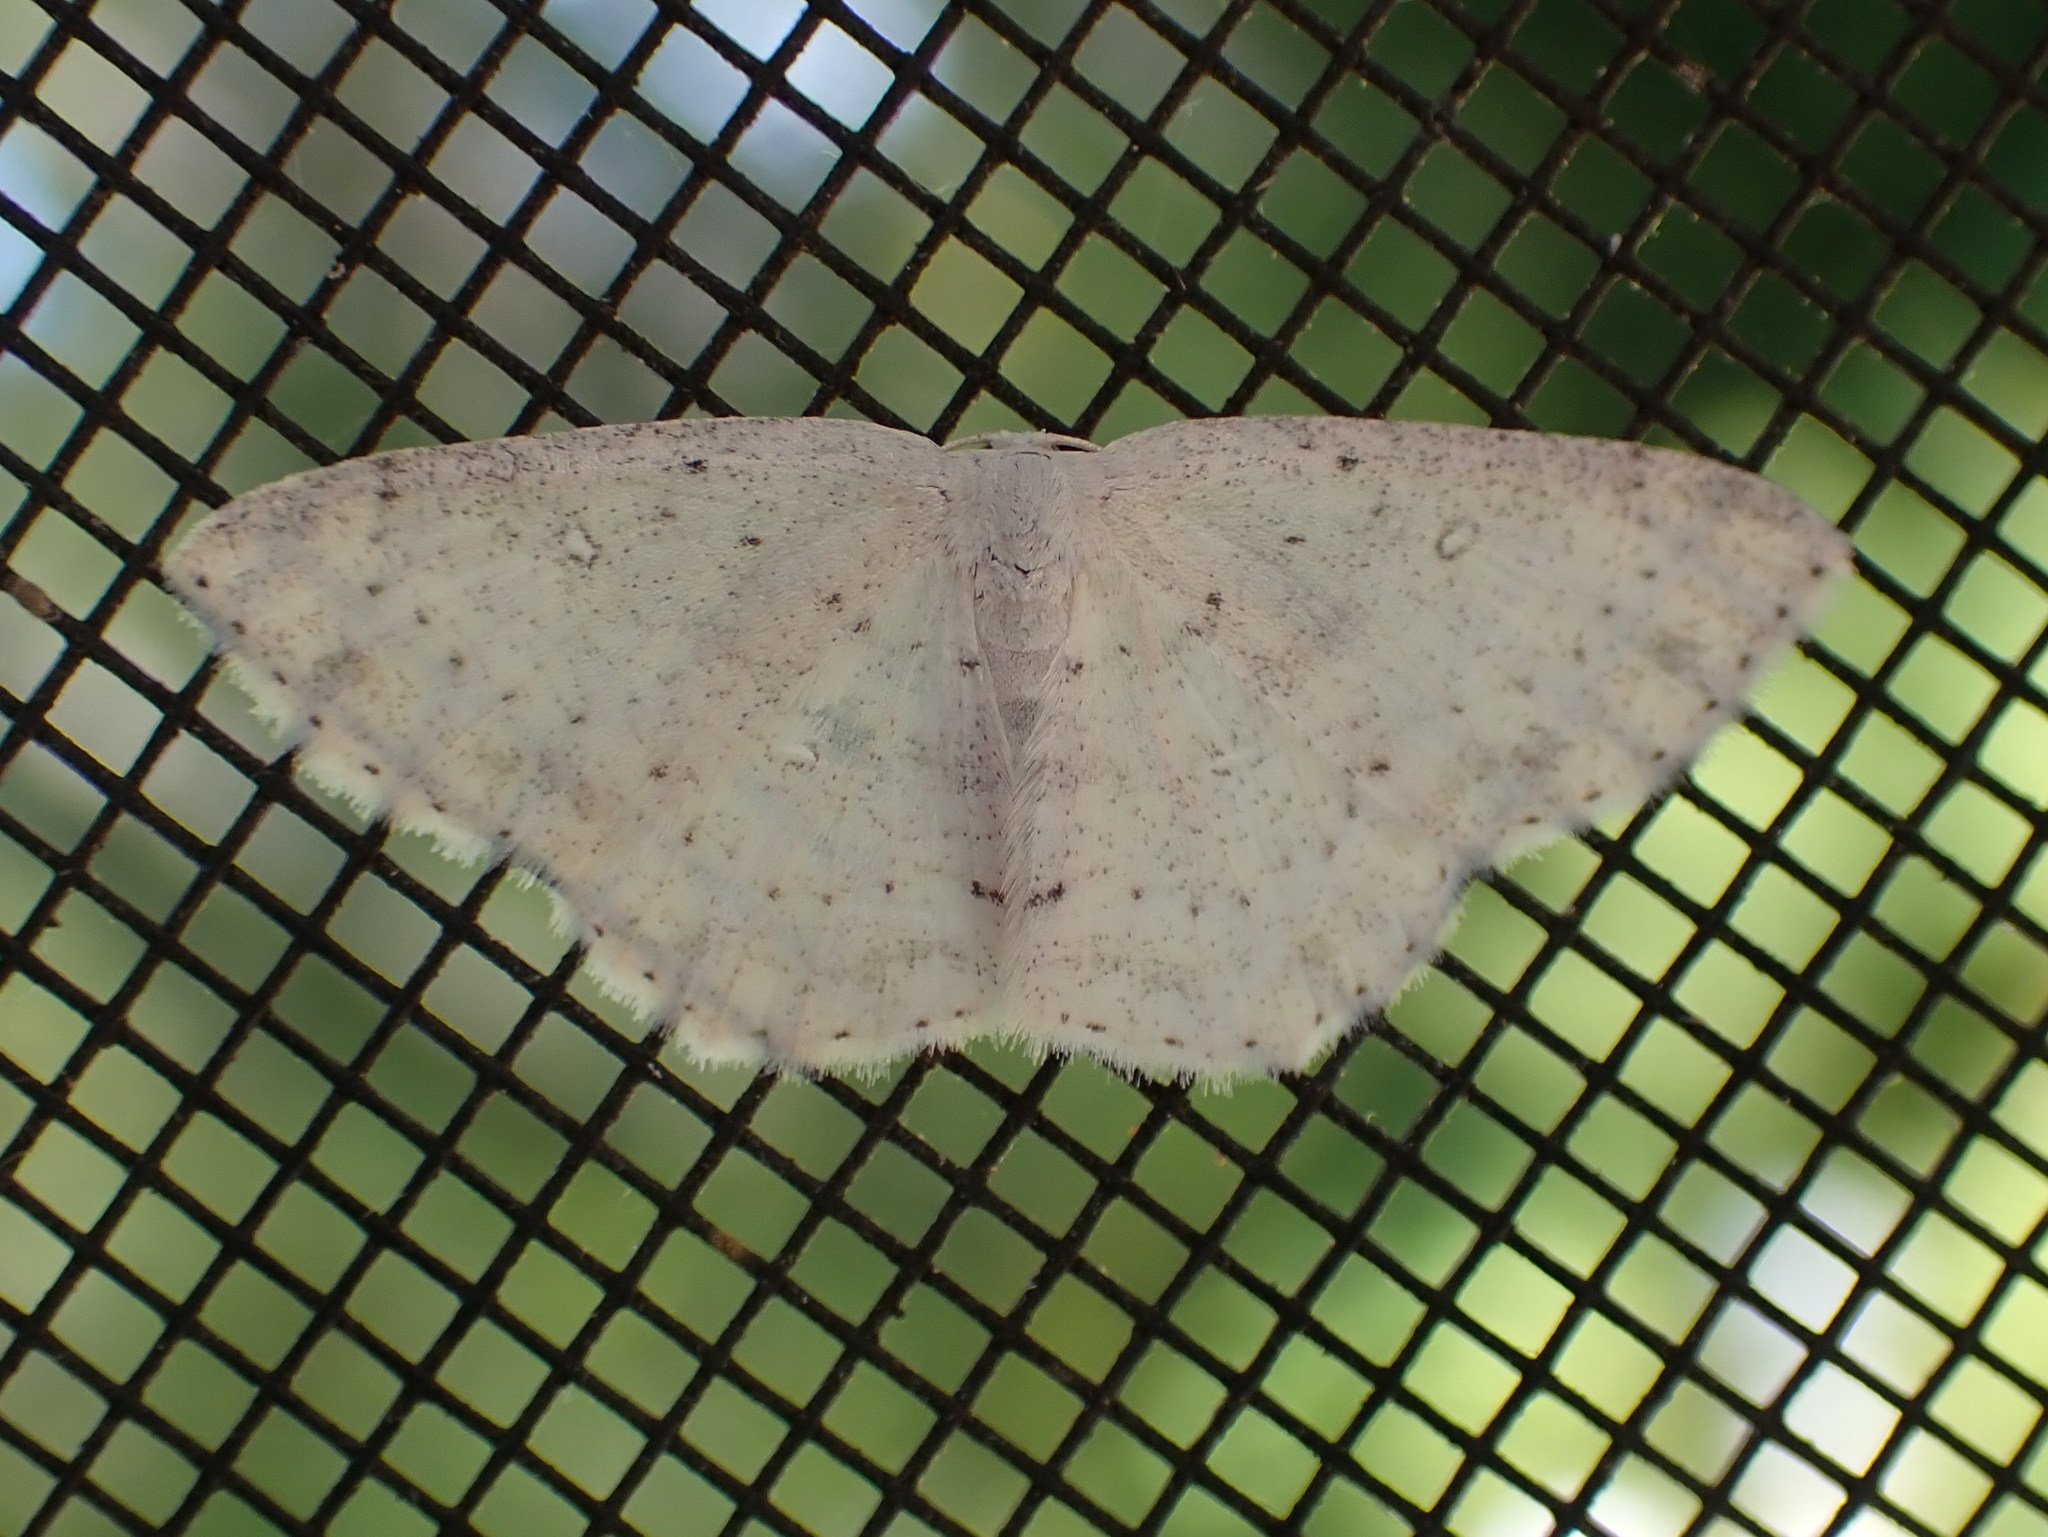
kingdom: Animalia
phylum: Arthropoda
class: Insecta
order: Lepidoptera
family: Geometridae
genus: Cyclophora
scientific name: Cyclophora pendulinaria
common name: Sweet fern geometer
